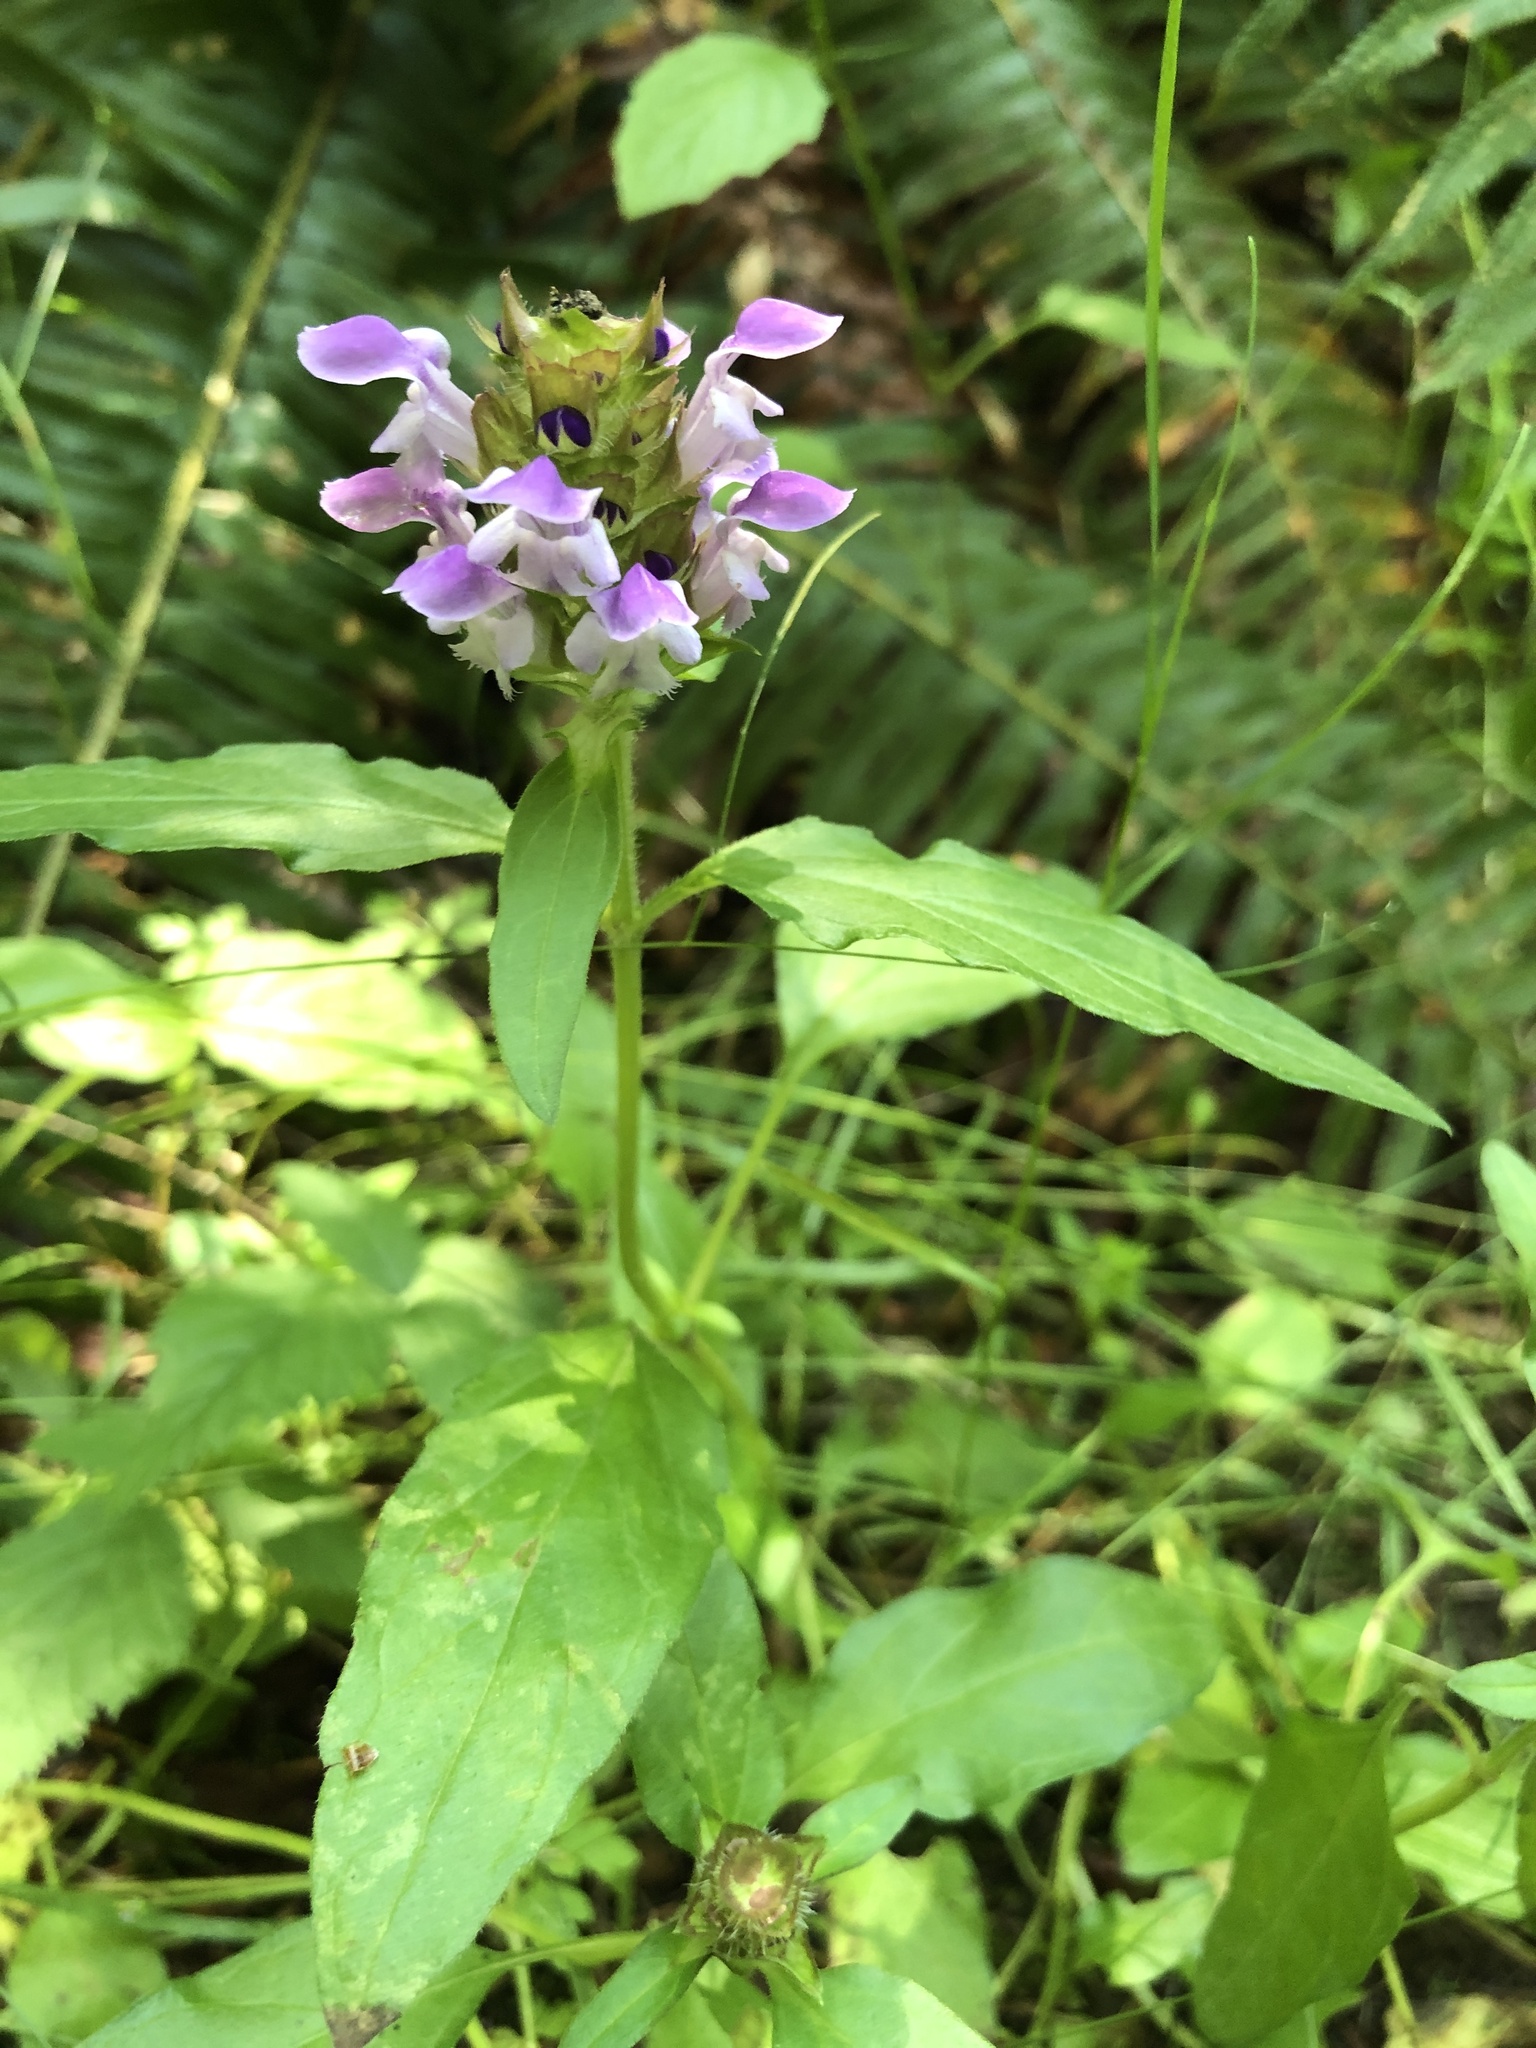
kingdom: Plantae
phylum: Tracheophyta
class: Magnoliopsida
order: Lamiales
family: Lamiaceae
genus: Prunella
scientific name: Prunella vulgaris
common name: Heal-all
